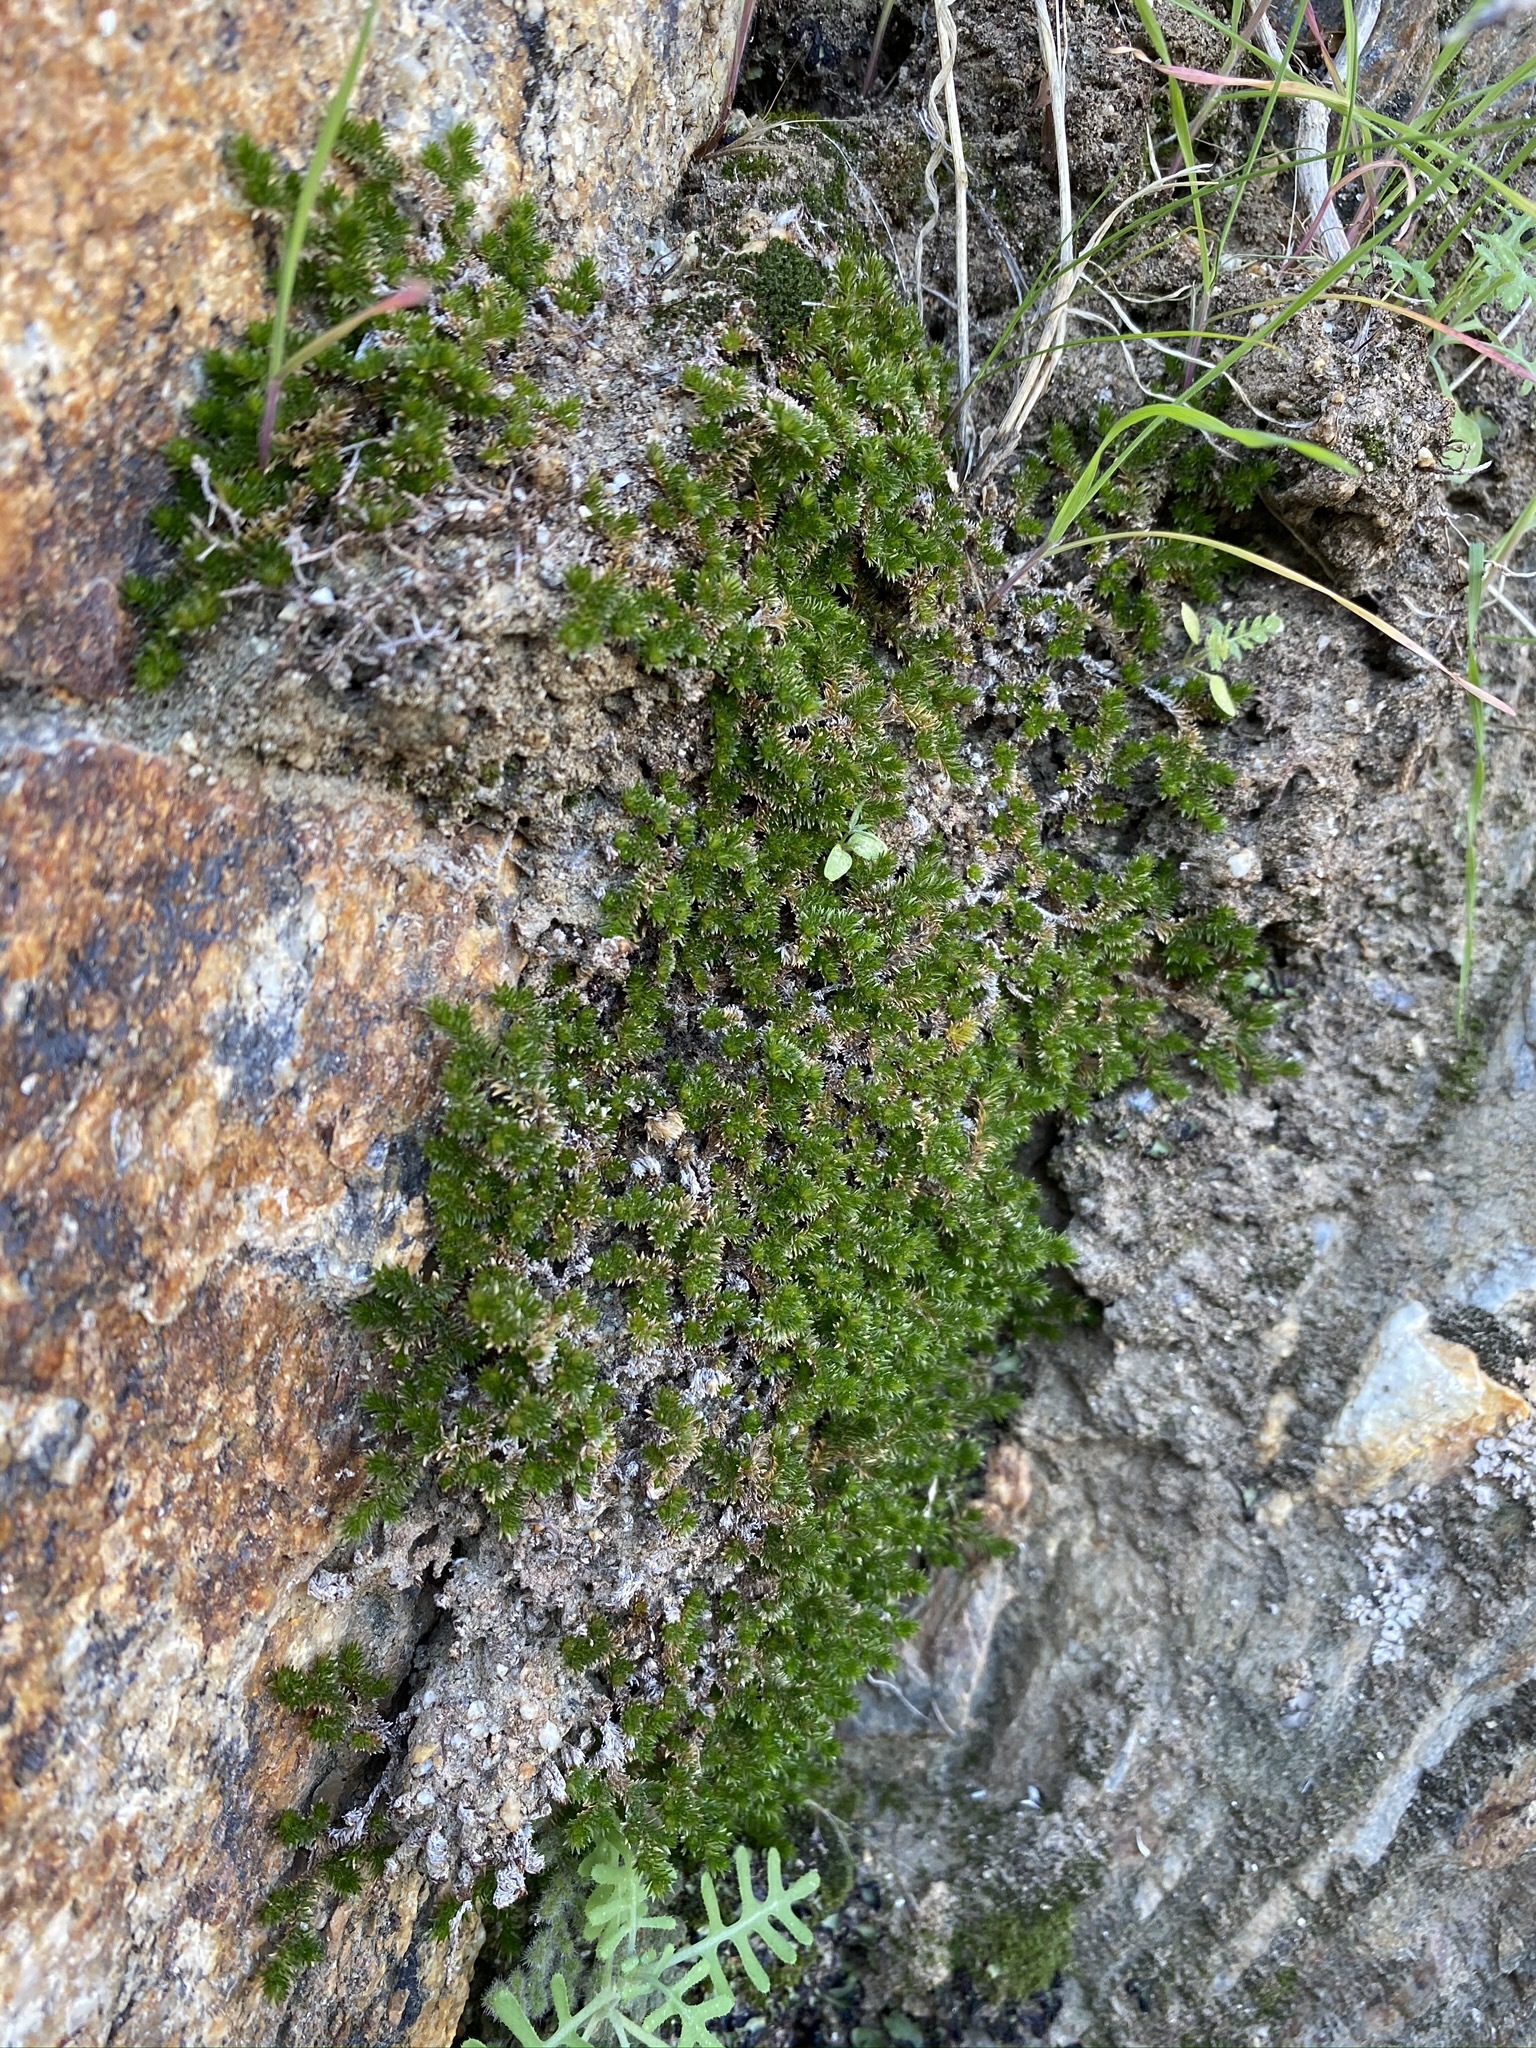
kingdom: Plantae
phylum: Tracheophyta
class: Lycopodiopsida
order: Selaginellales
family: Selaginellaceae
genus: Selaginella
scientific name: Selaginella eremophila
